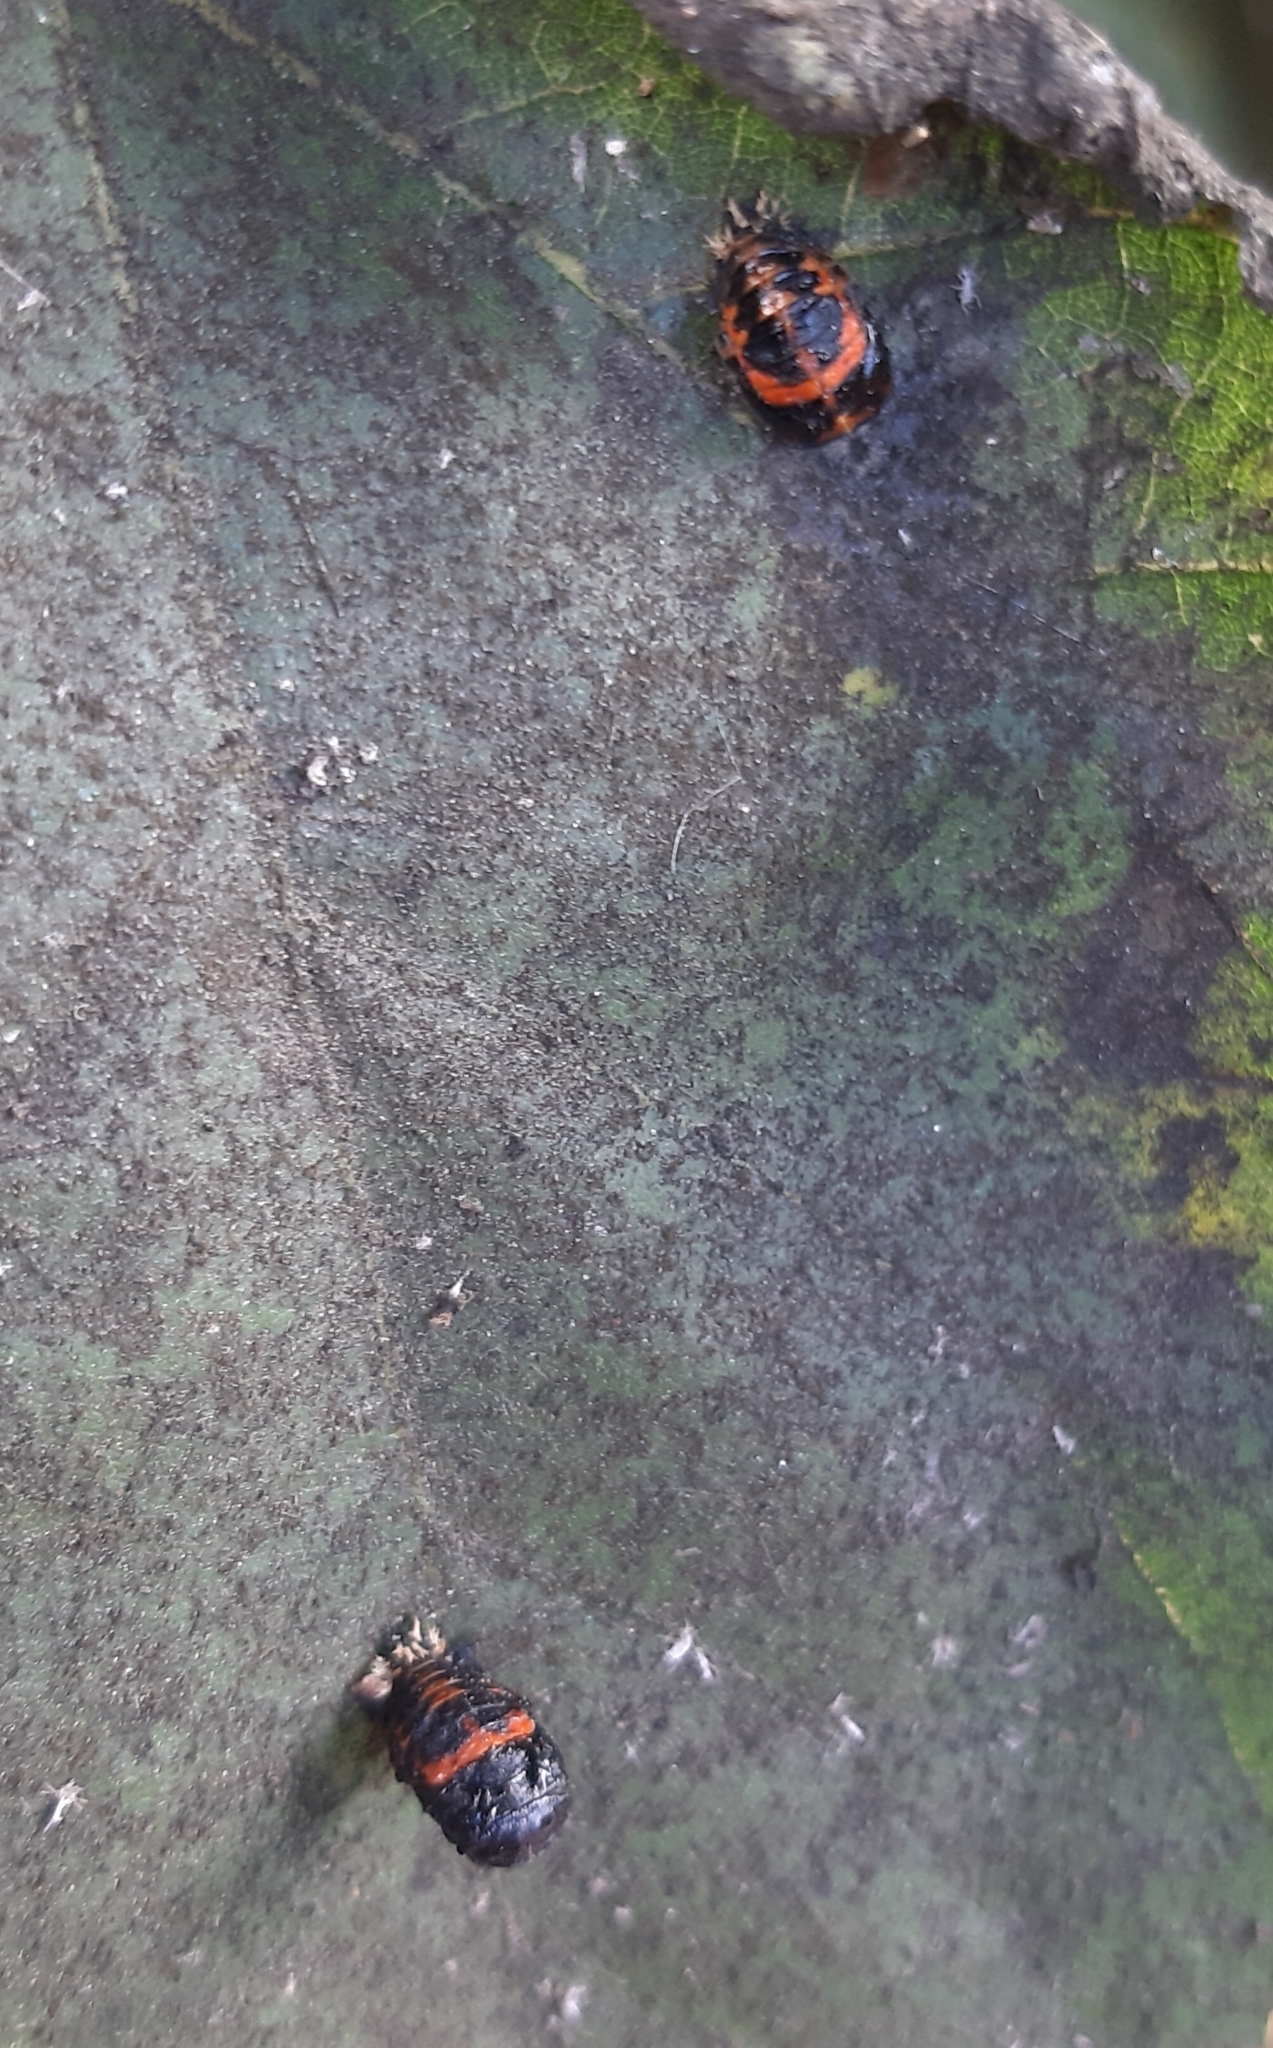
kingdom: Animalia
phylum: Arthropoda
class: Insecta
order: Coleoptera
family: Coccinellidae
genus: Harmonia
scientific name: Harmonia axyridis
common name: Harlequin ladybird
